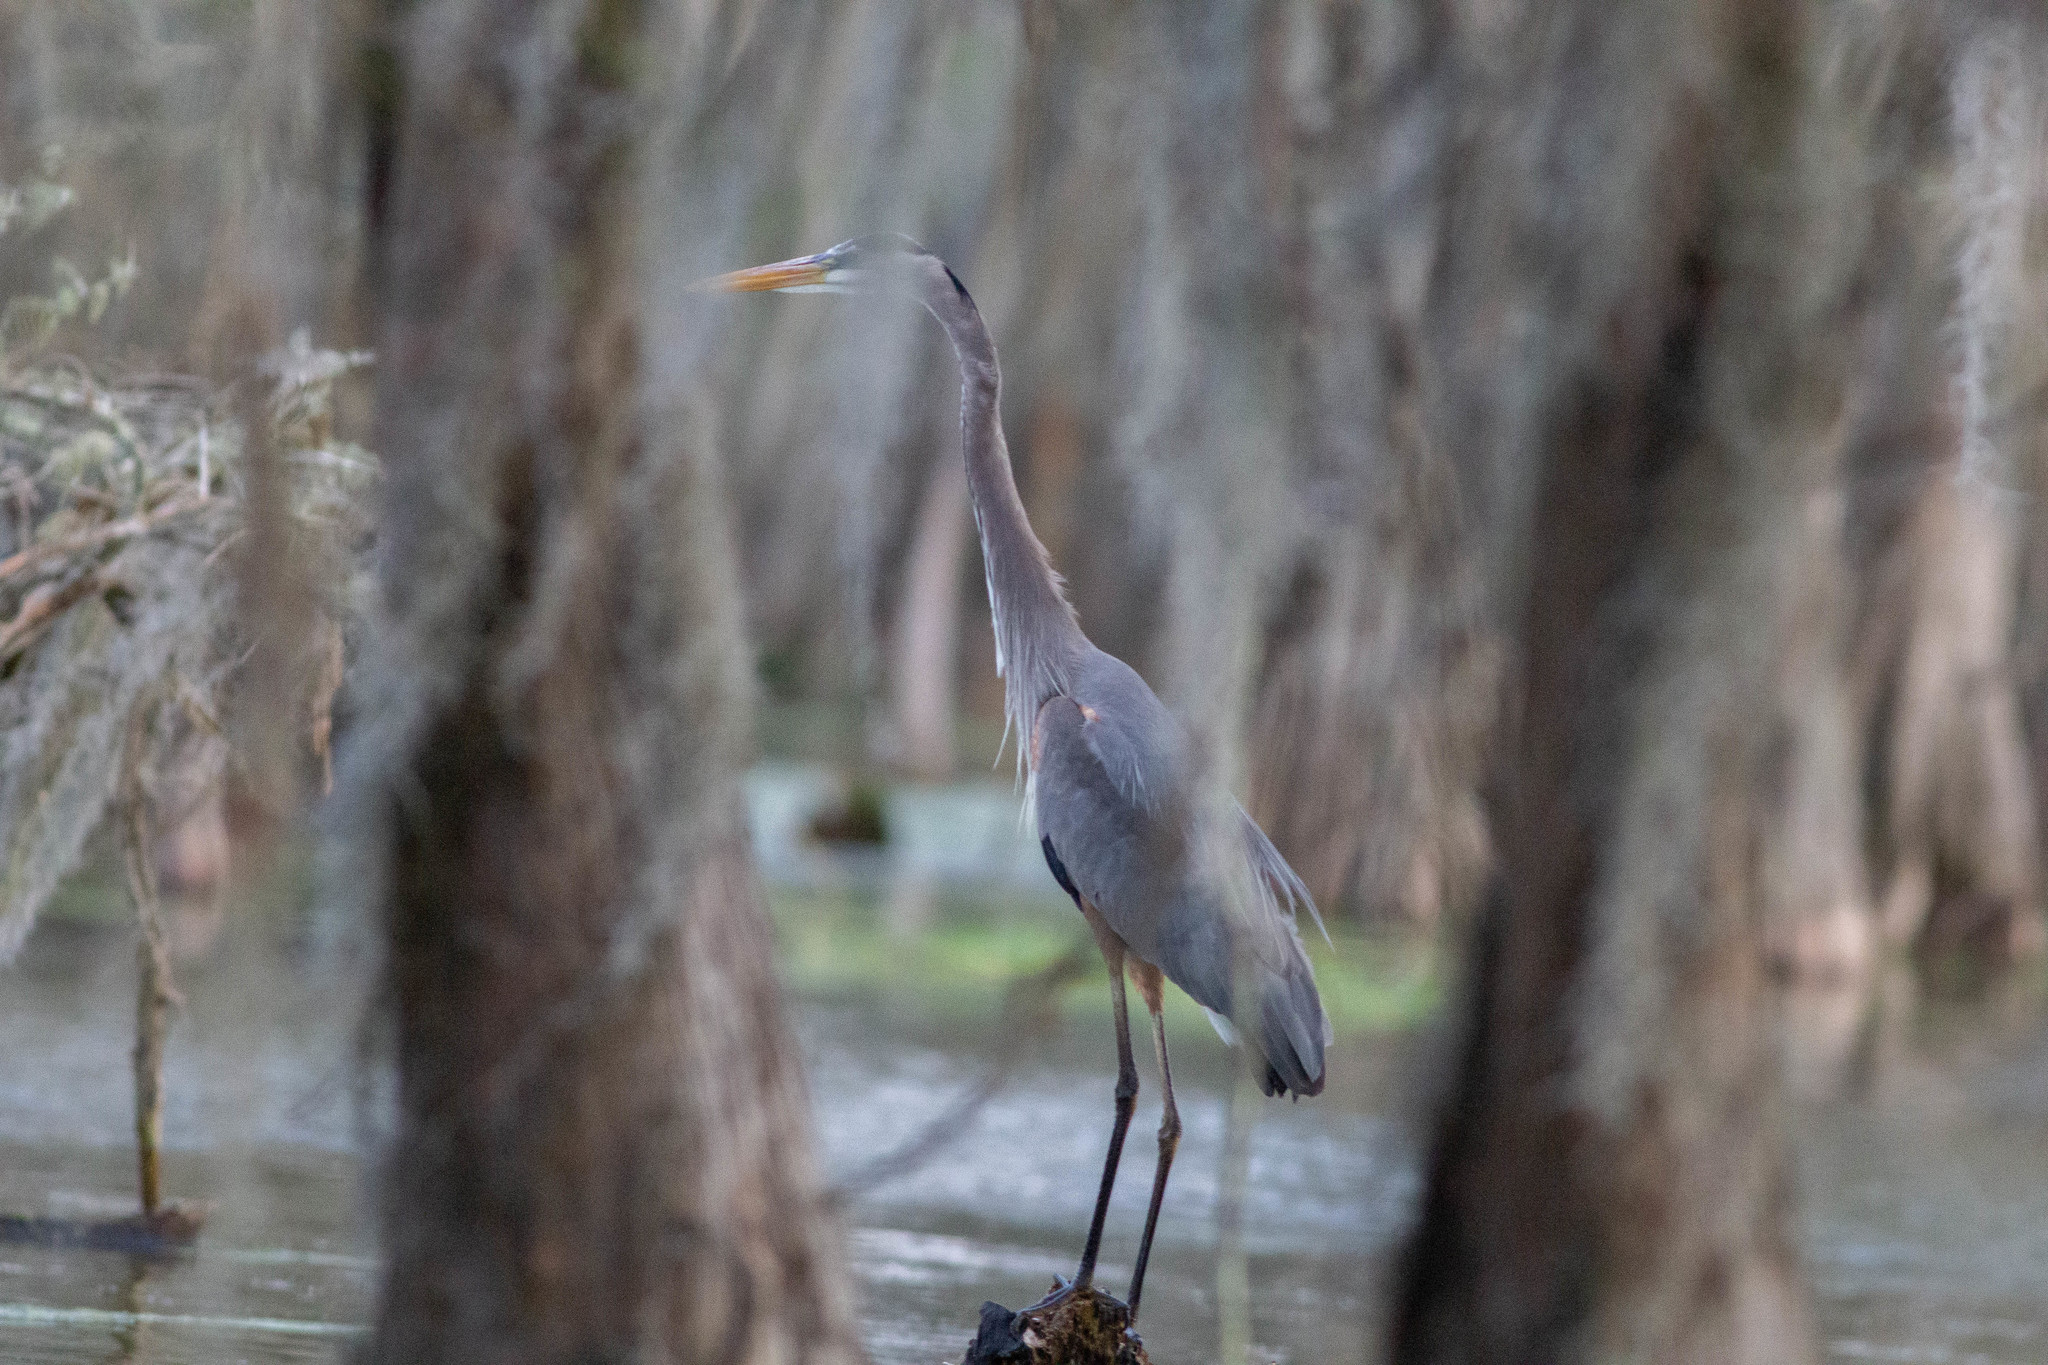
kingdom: Animalia
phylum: Chordata
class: Aves
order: Pelecaniformes
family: Ardeidae
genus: Ardea
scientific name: Ardea herodias
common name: Great blue heron
